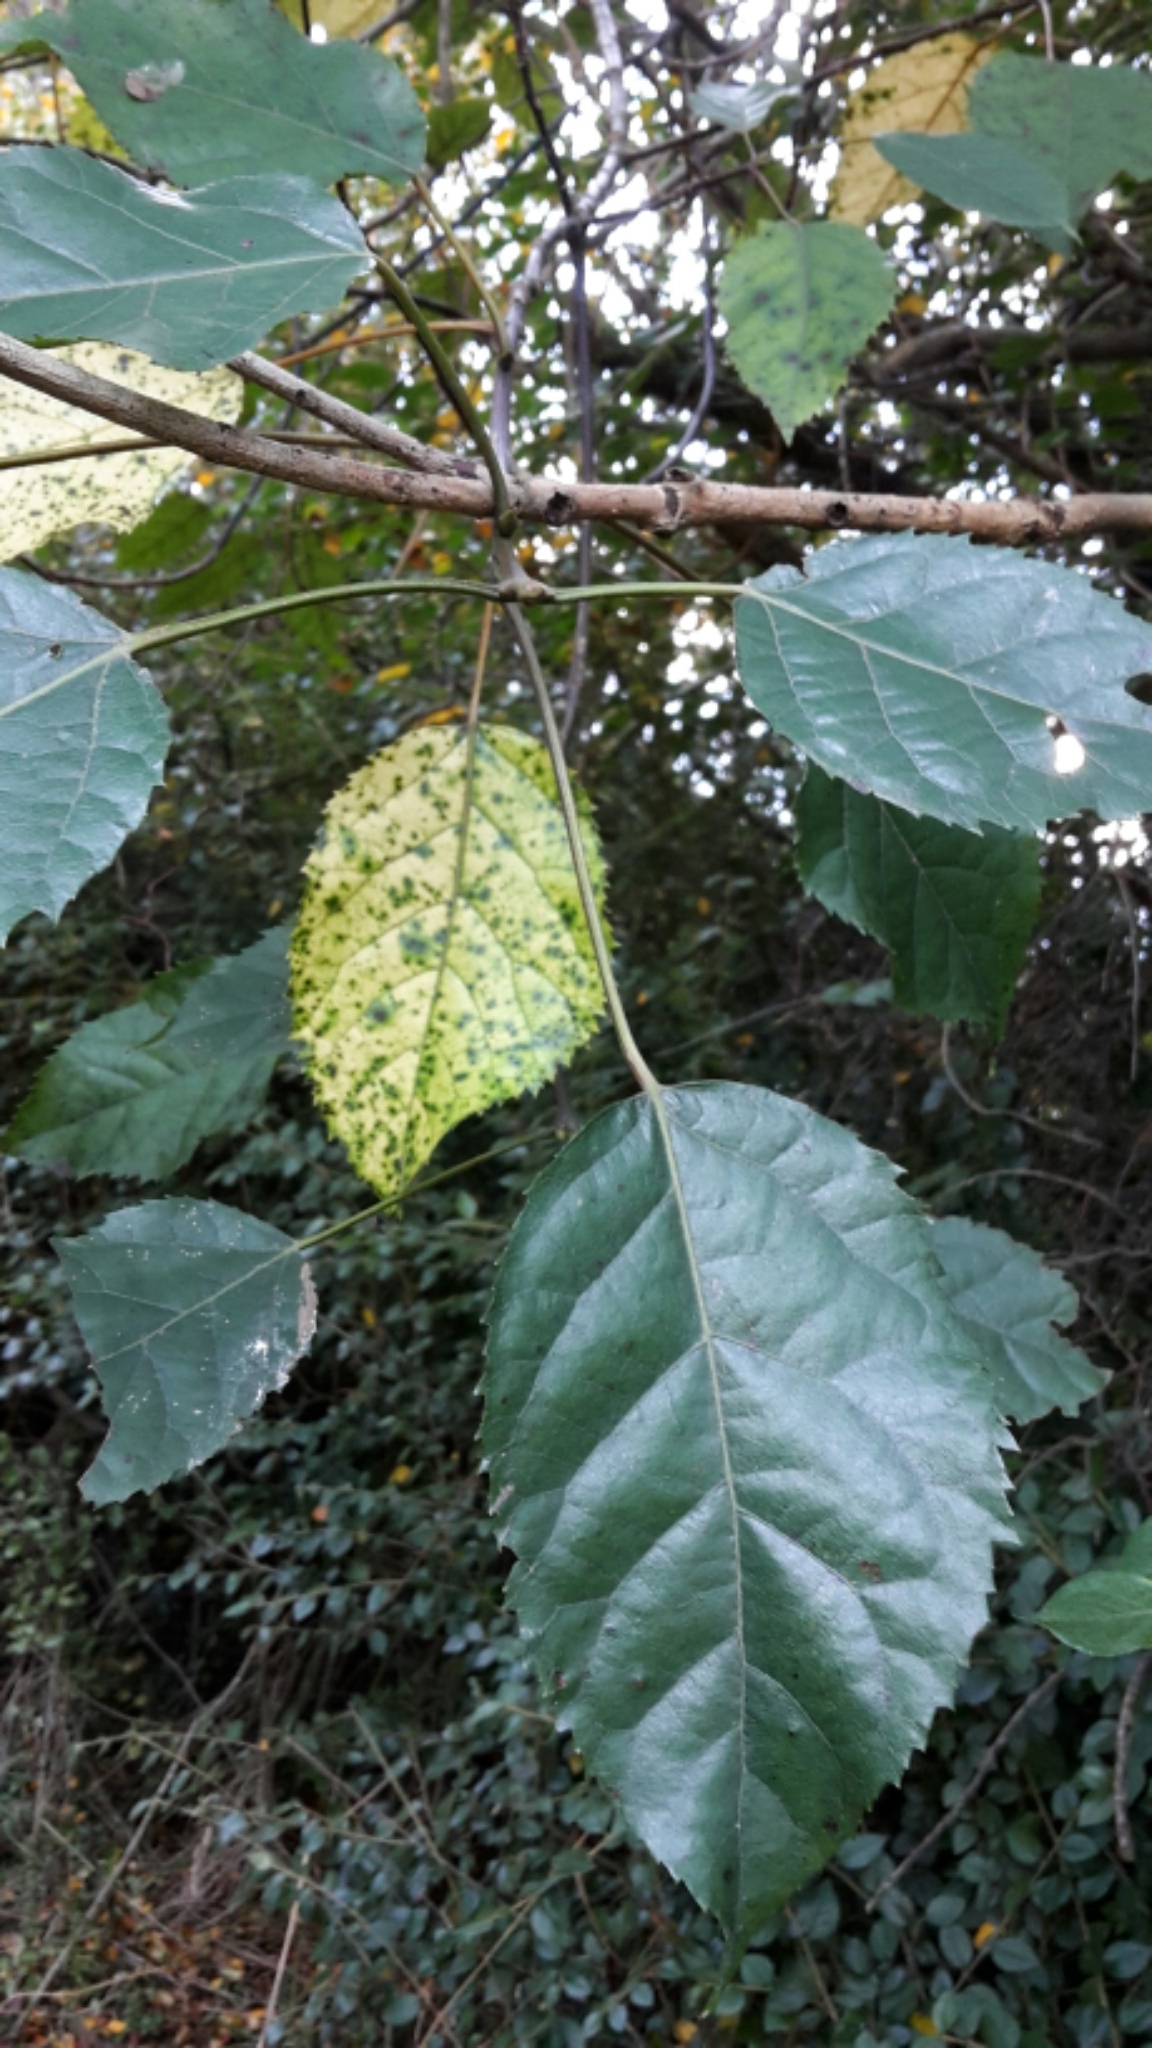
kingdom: Plantae
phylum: Tracheophyta
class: Magnoliopsida
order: Oxalidales
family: Elaeocarpaceae
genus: Aristotelia
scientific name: Aristotelia serrata
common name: New zealand wineberry
